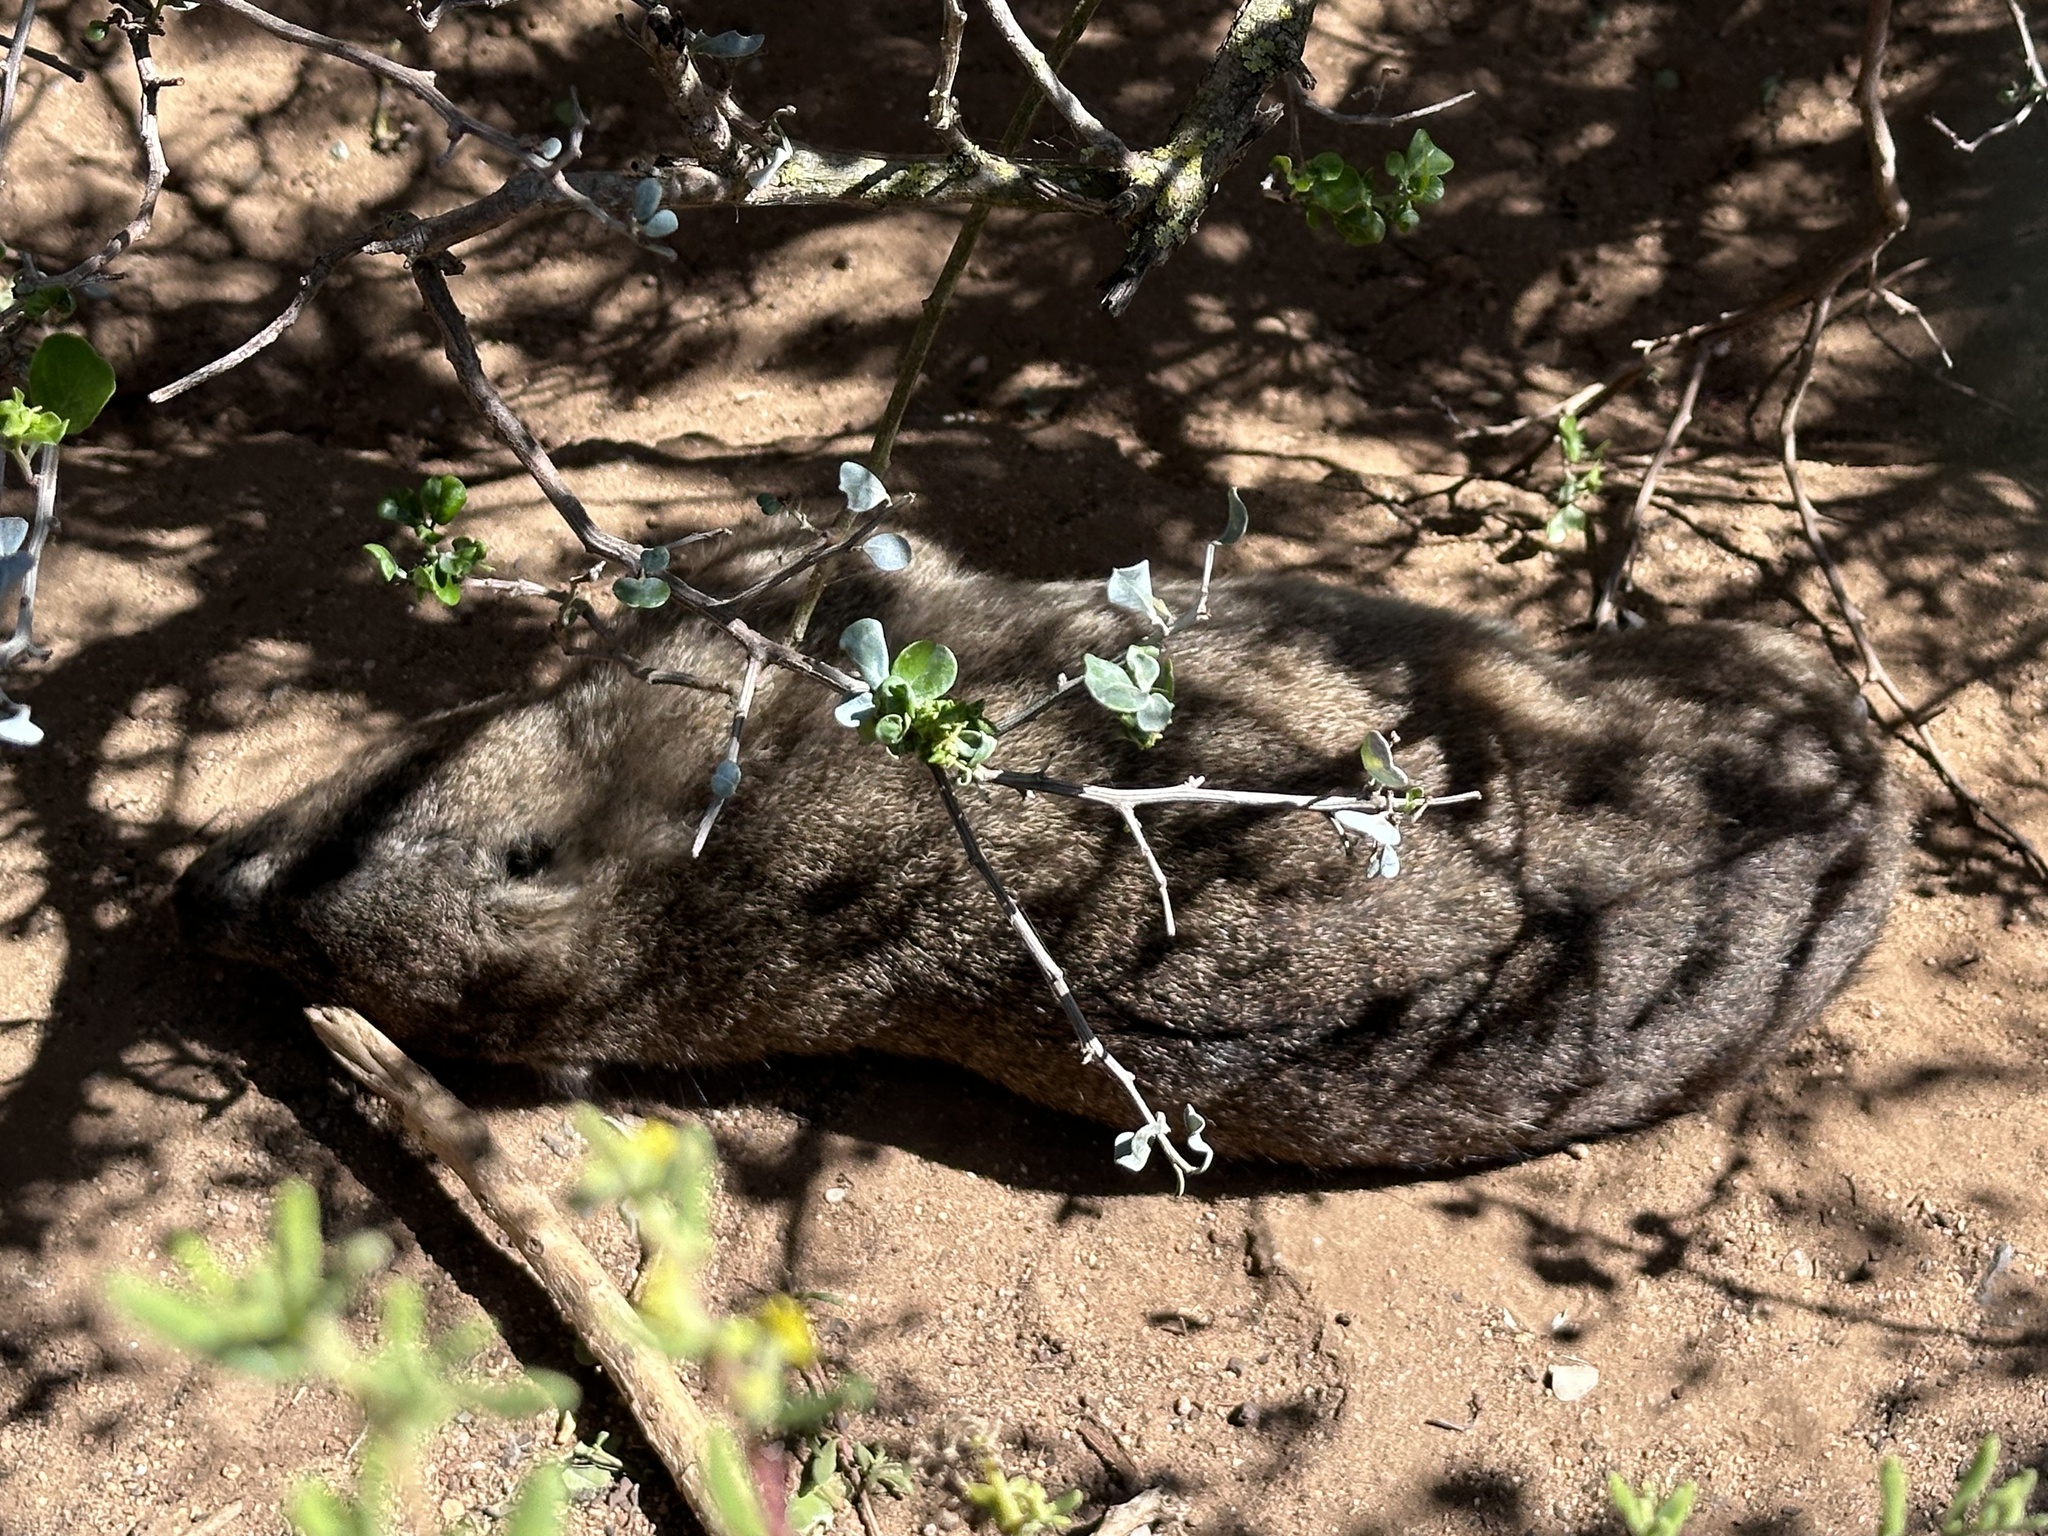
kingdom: Animalia
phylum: Chordata
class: Mammalia
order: Hyracoidea
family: Procaviidae
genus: Procavia
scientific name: Procavia capensis
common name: Rock hyrax
